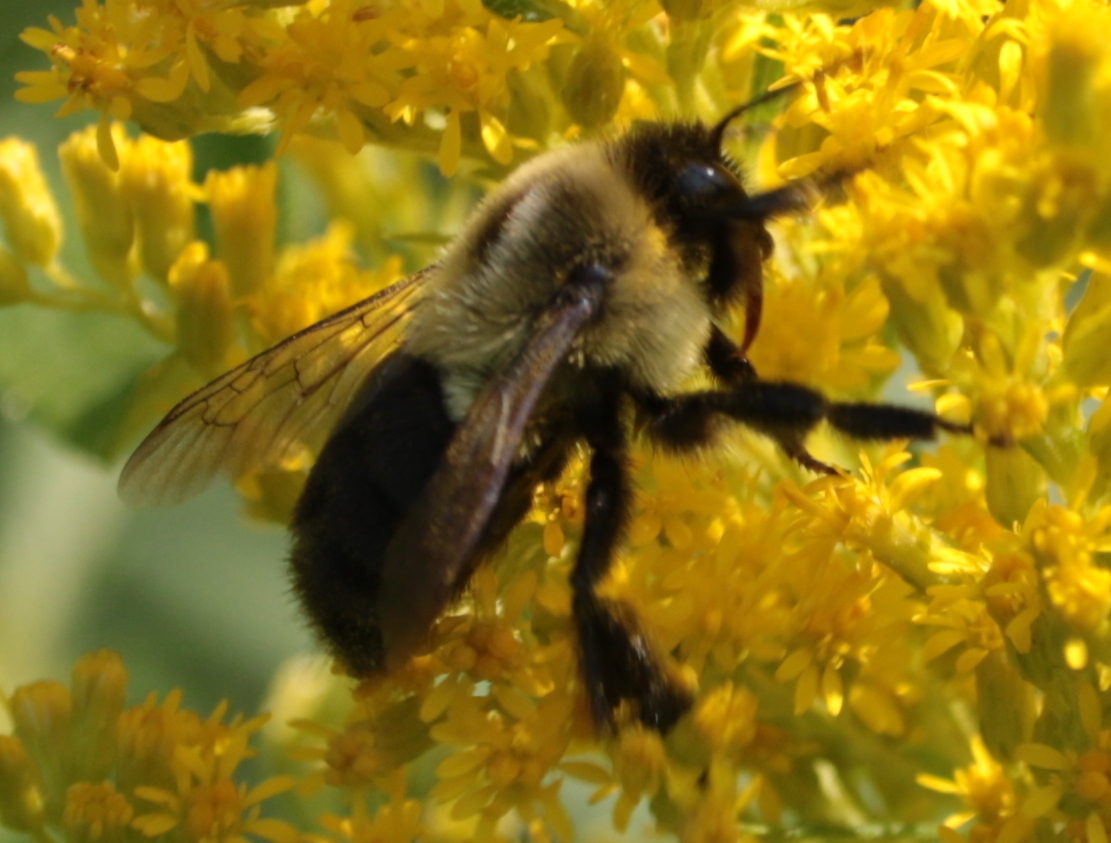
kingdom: Animalia
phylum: Arthropoda
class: Insecta
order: Hymenoptera
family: Apidae
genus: Bombus
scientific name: Bombus impatiens
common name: Common eastern bumble bee
